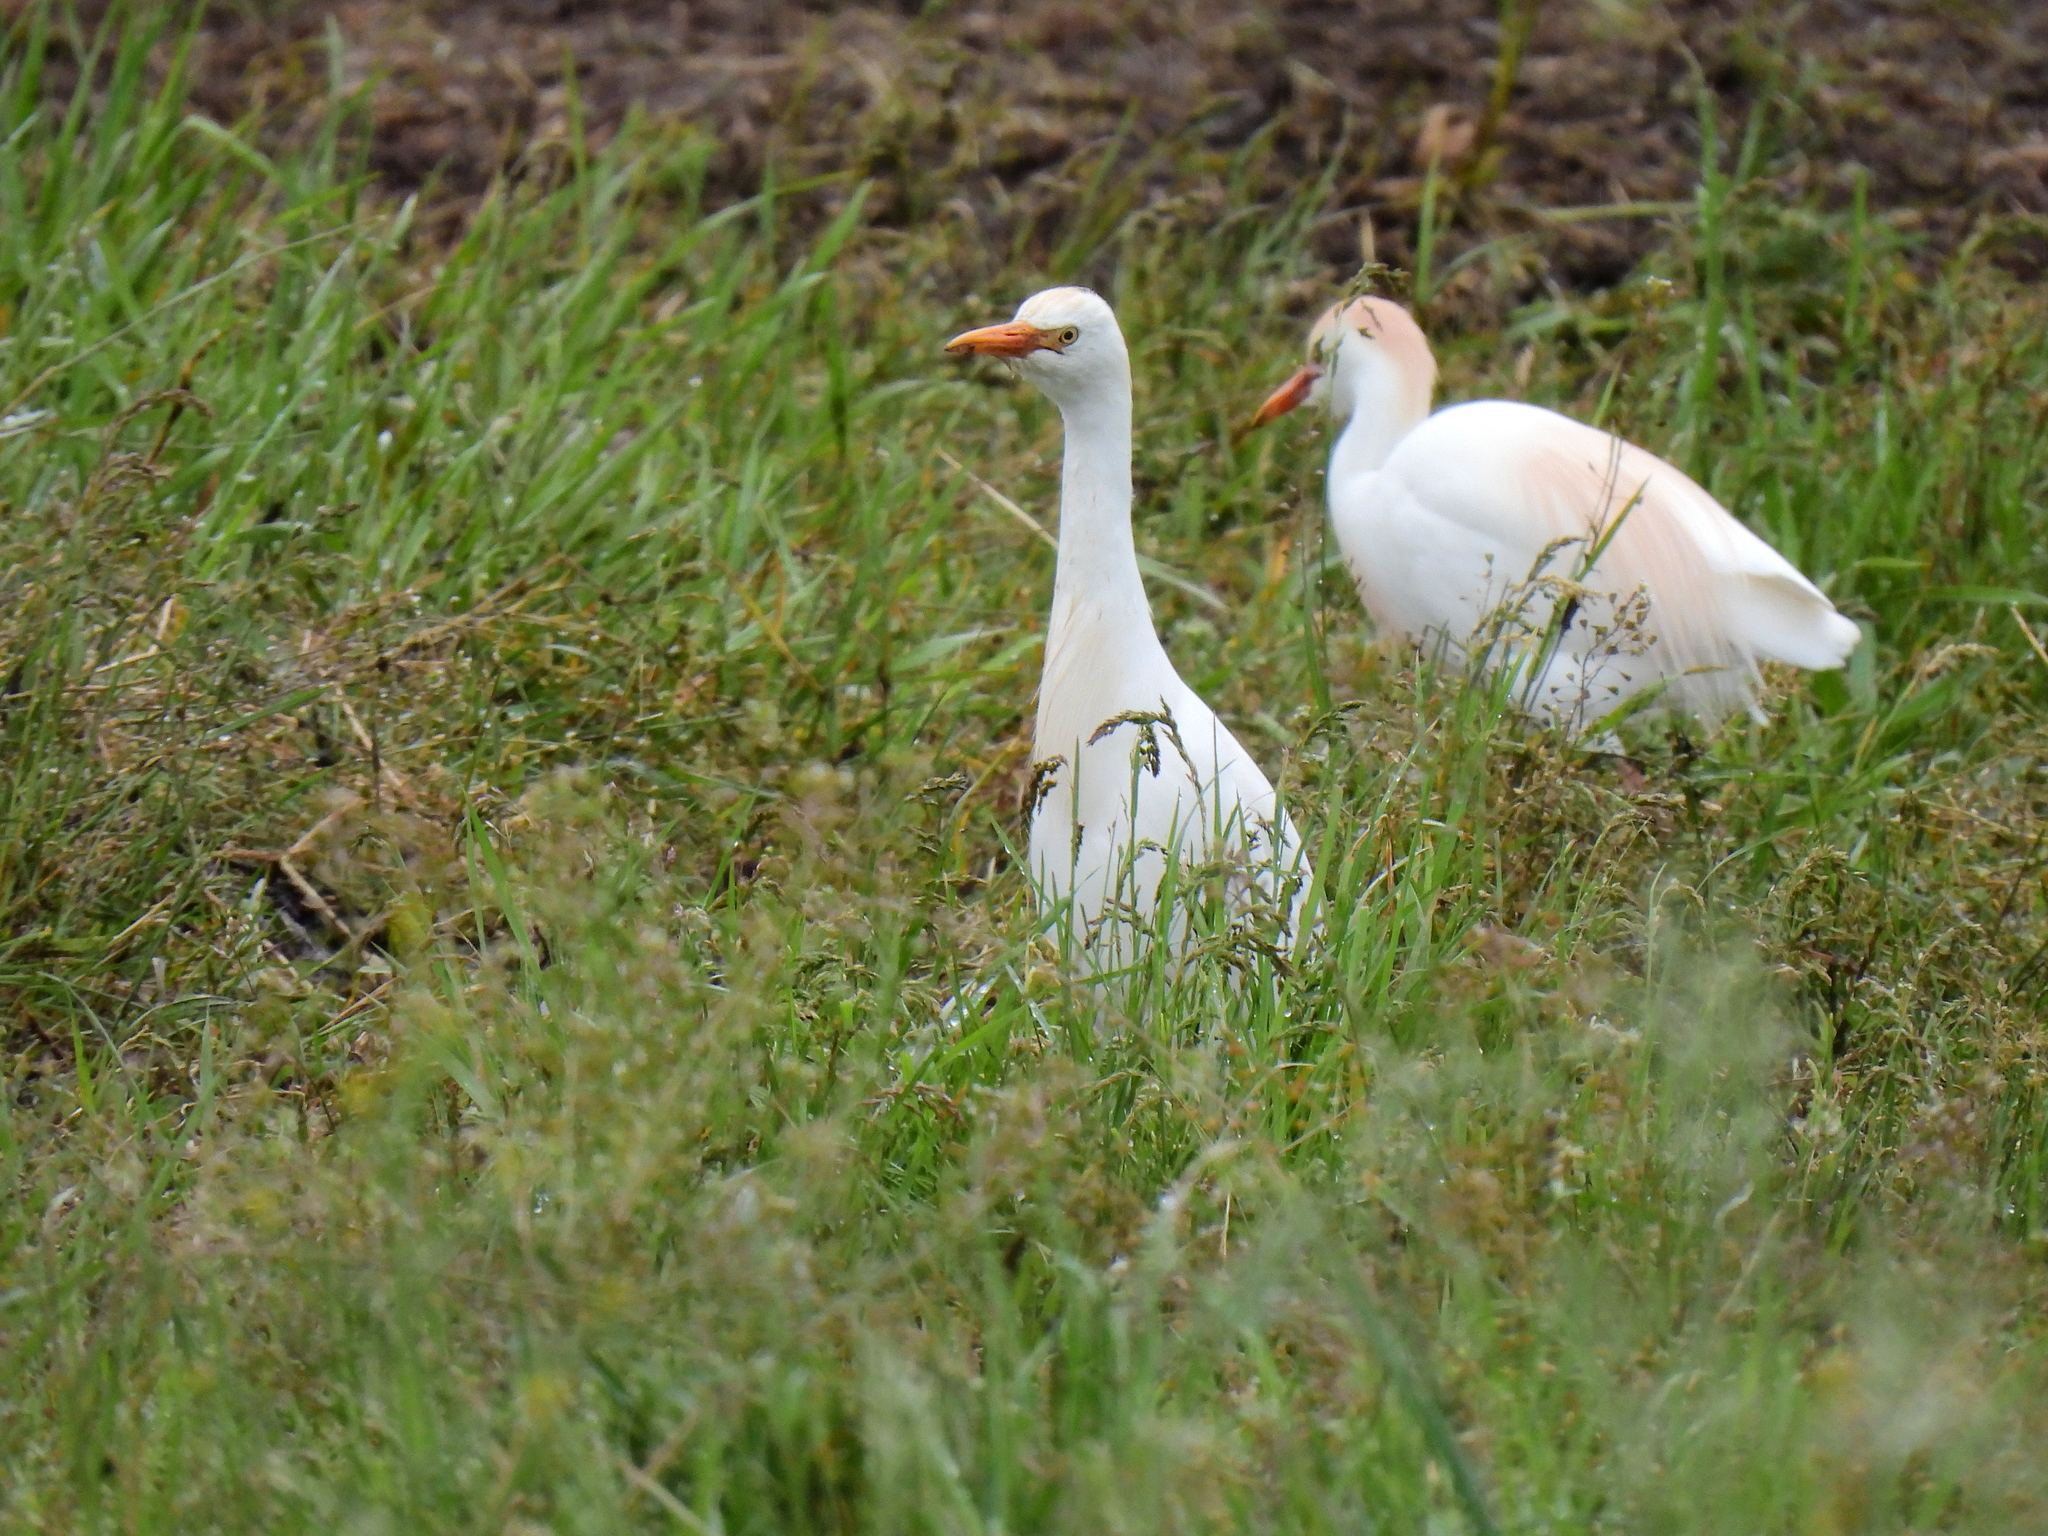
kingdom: Animalia
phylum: Chordata
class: Aves
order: Pelecaniformes
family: Ardeidae
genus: Bubulcus
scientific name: Bubulcus ibis
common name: Cattle egret
